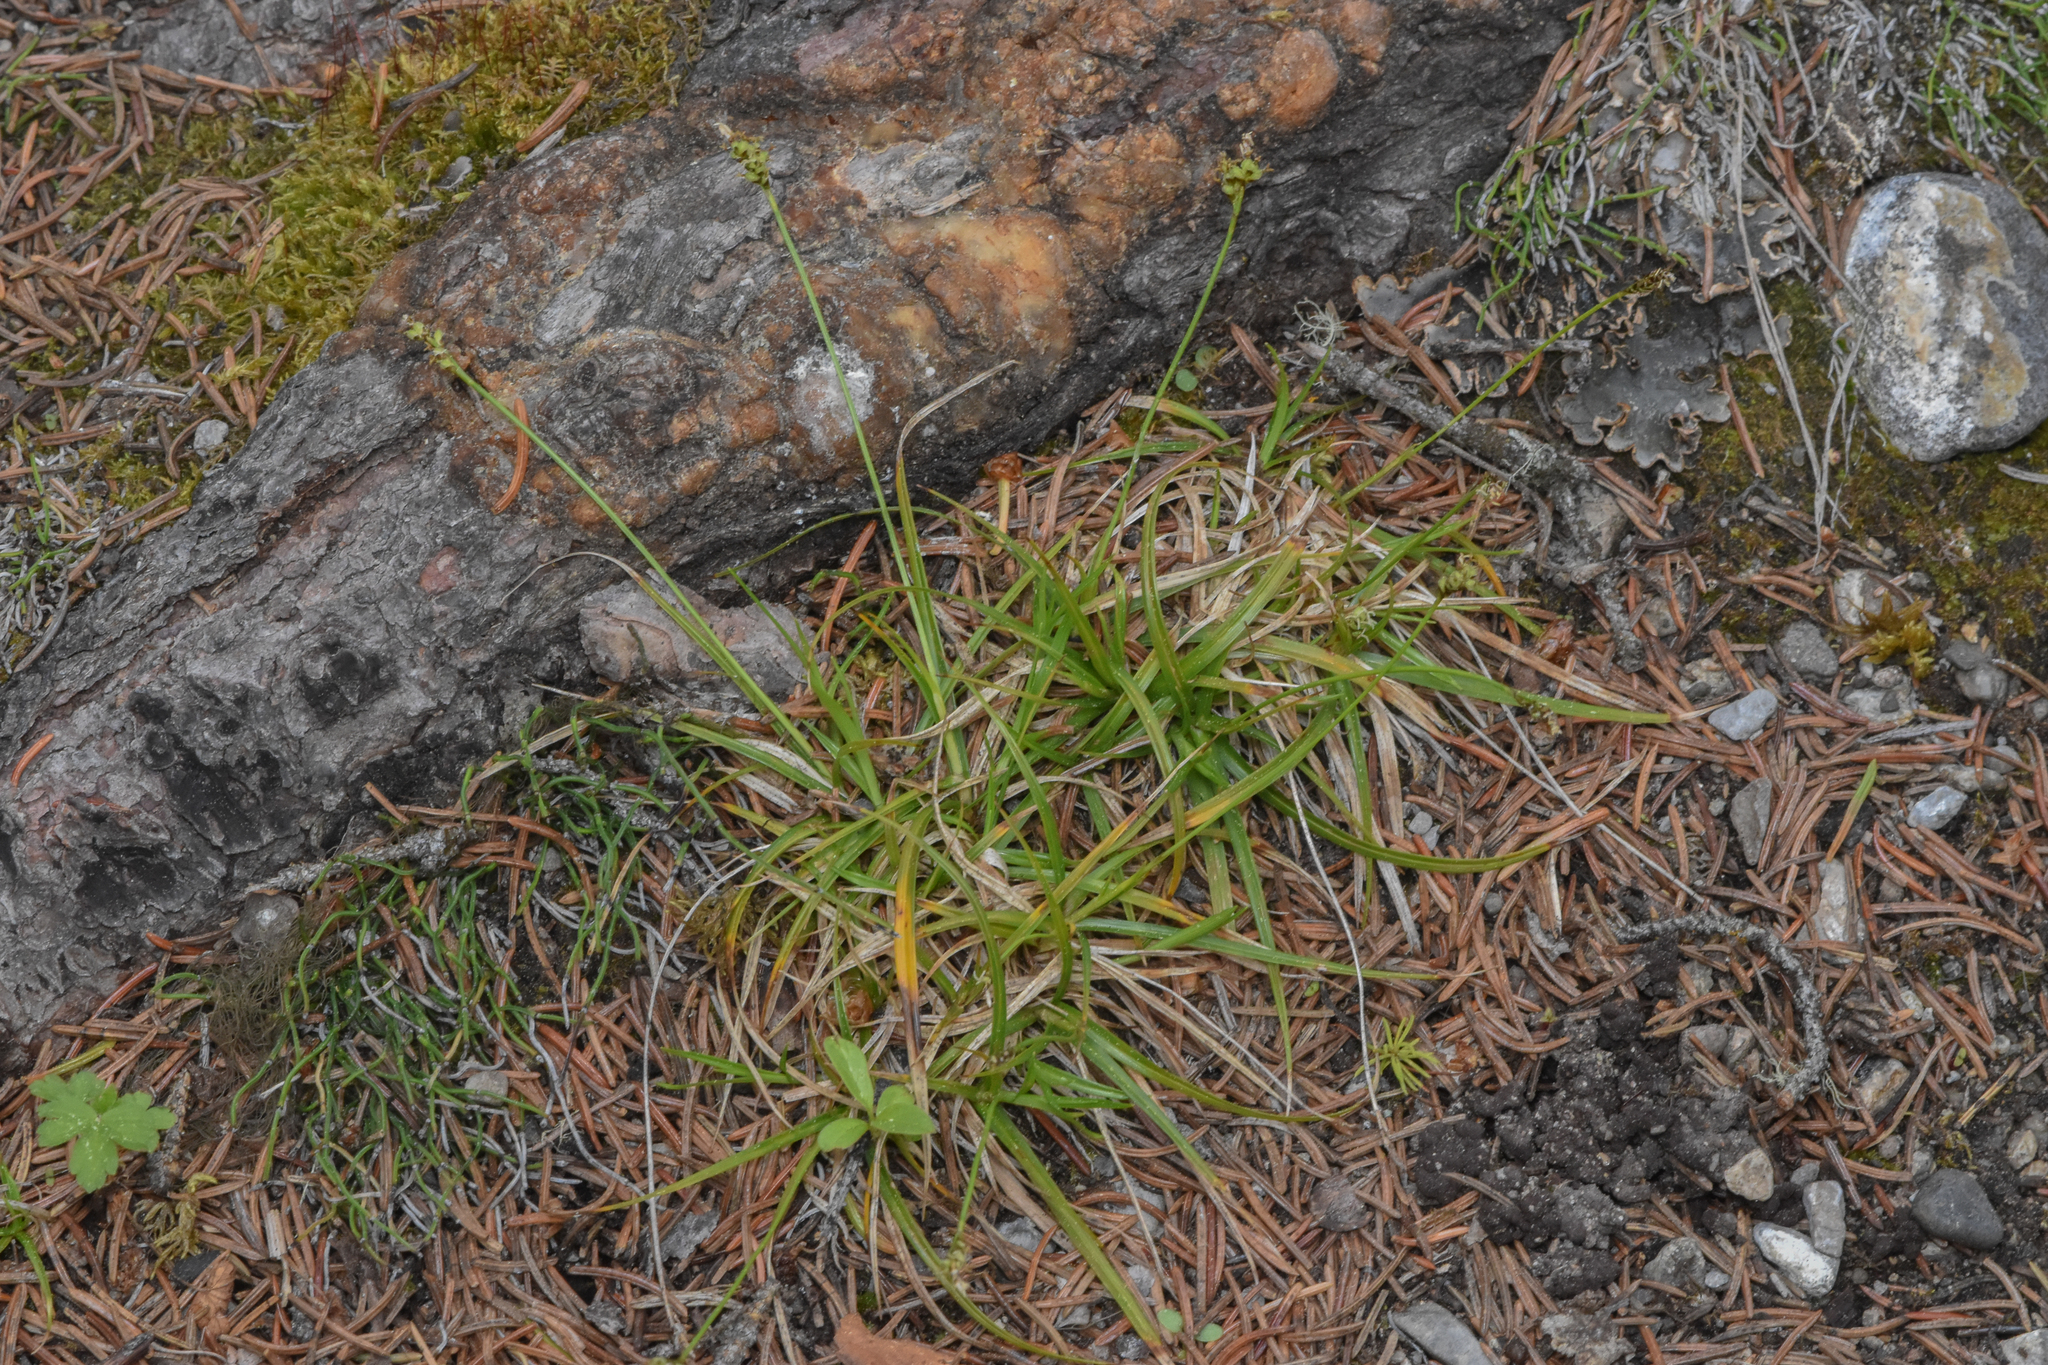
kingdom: Plantae
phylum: Tracheophyta
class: Liliopsida
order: Poales
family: Cyperaceae
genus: Carex
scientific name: Carex concinna
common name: Beautiful sedge
